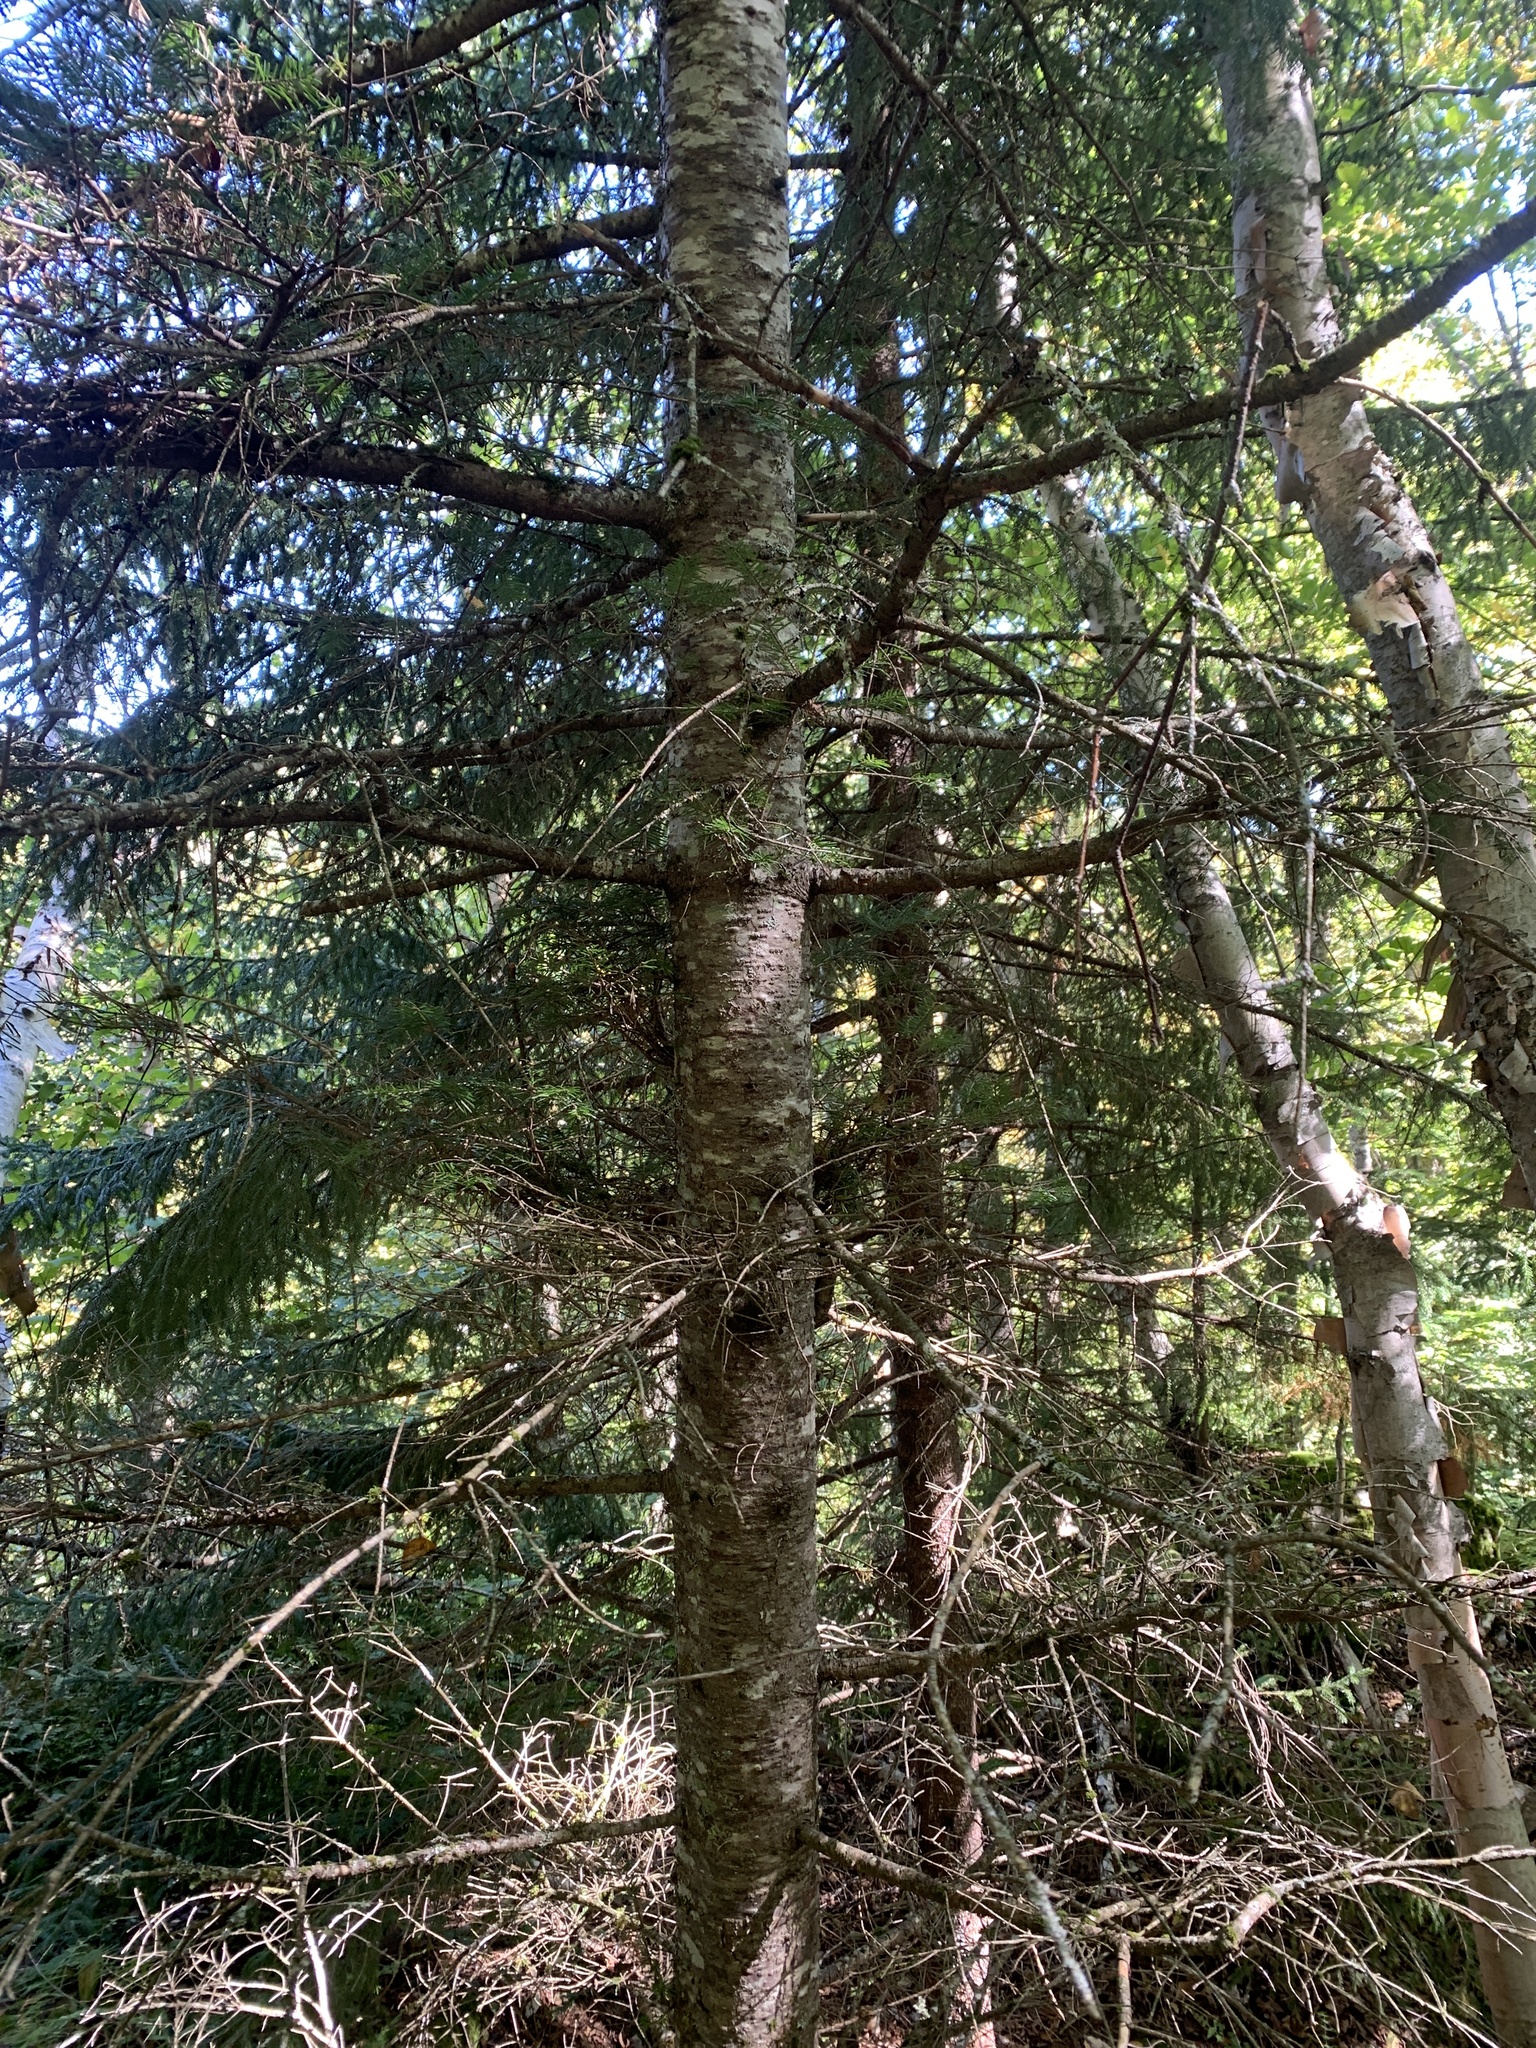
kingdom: Plantae
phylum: Tracheophyta
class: Pinopsida
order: Pinales
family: Pinaceae
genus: Abies
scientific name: Abies balsamea
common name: Balsam fir
